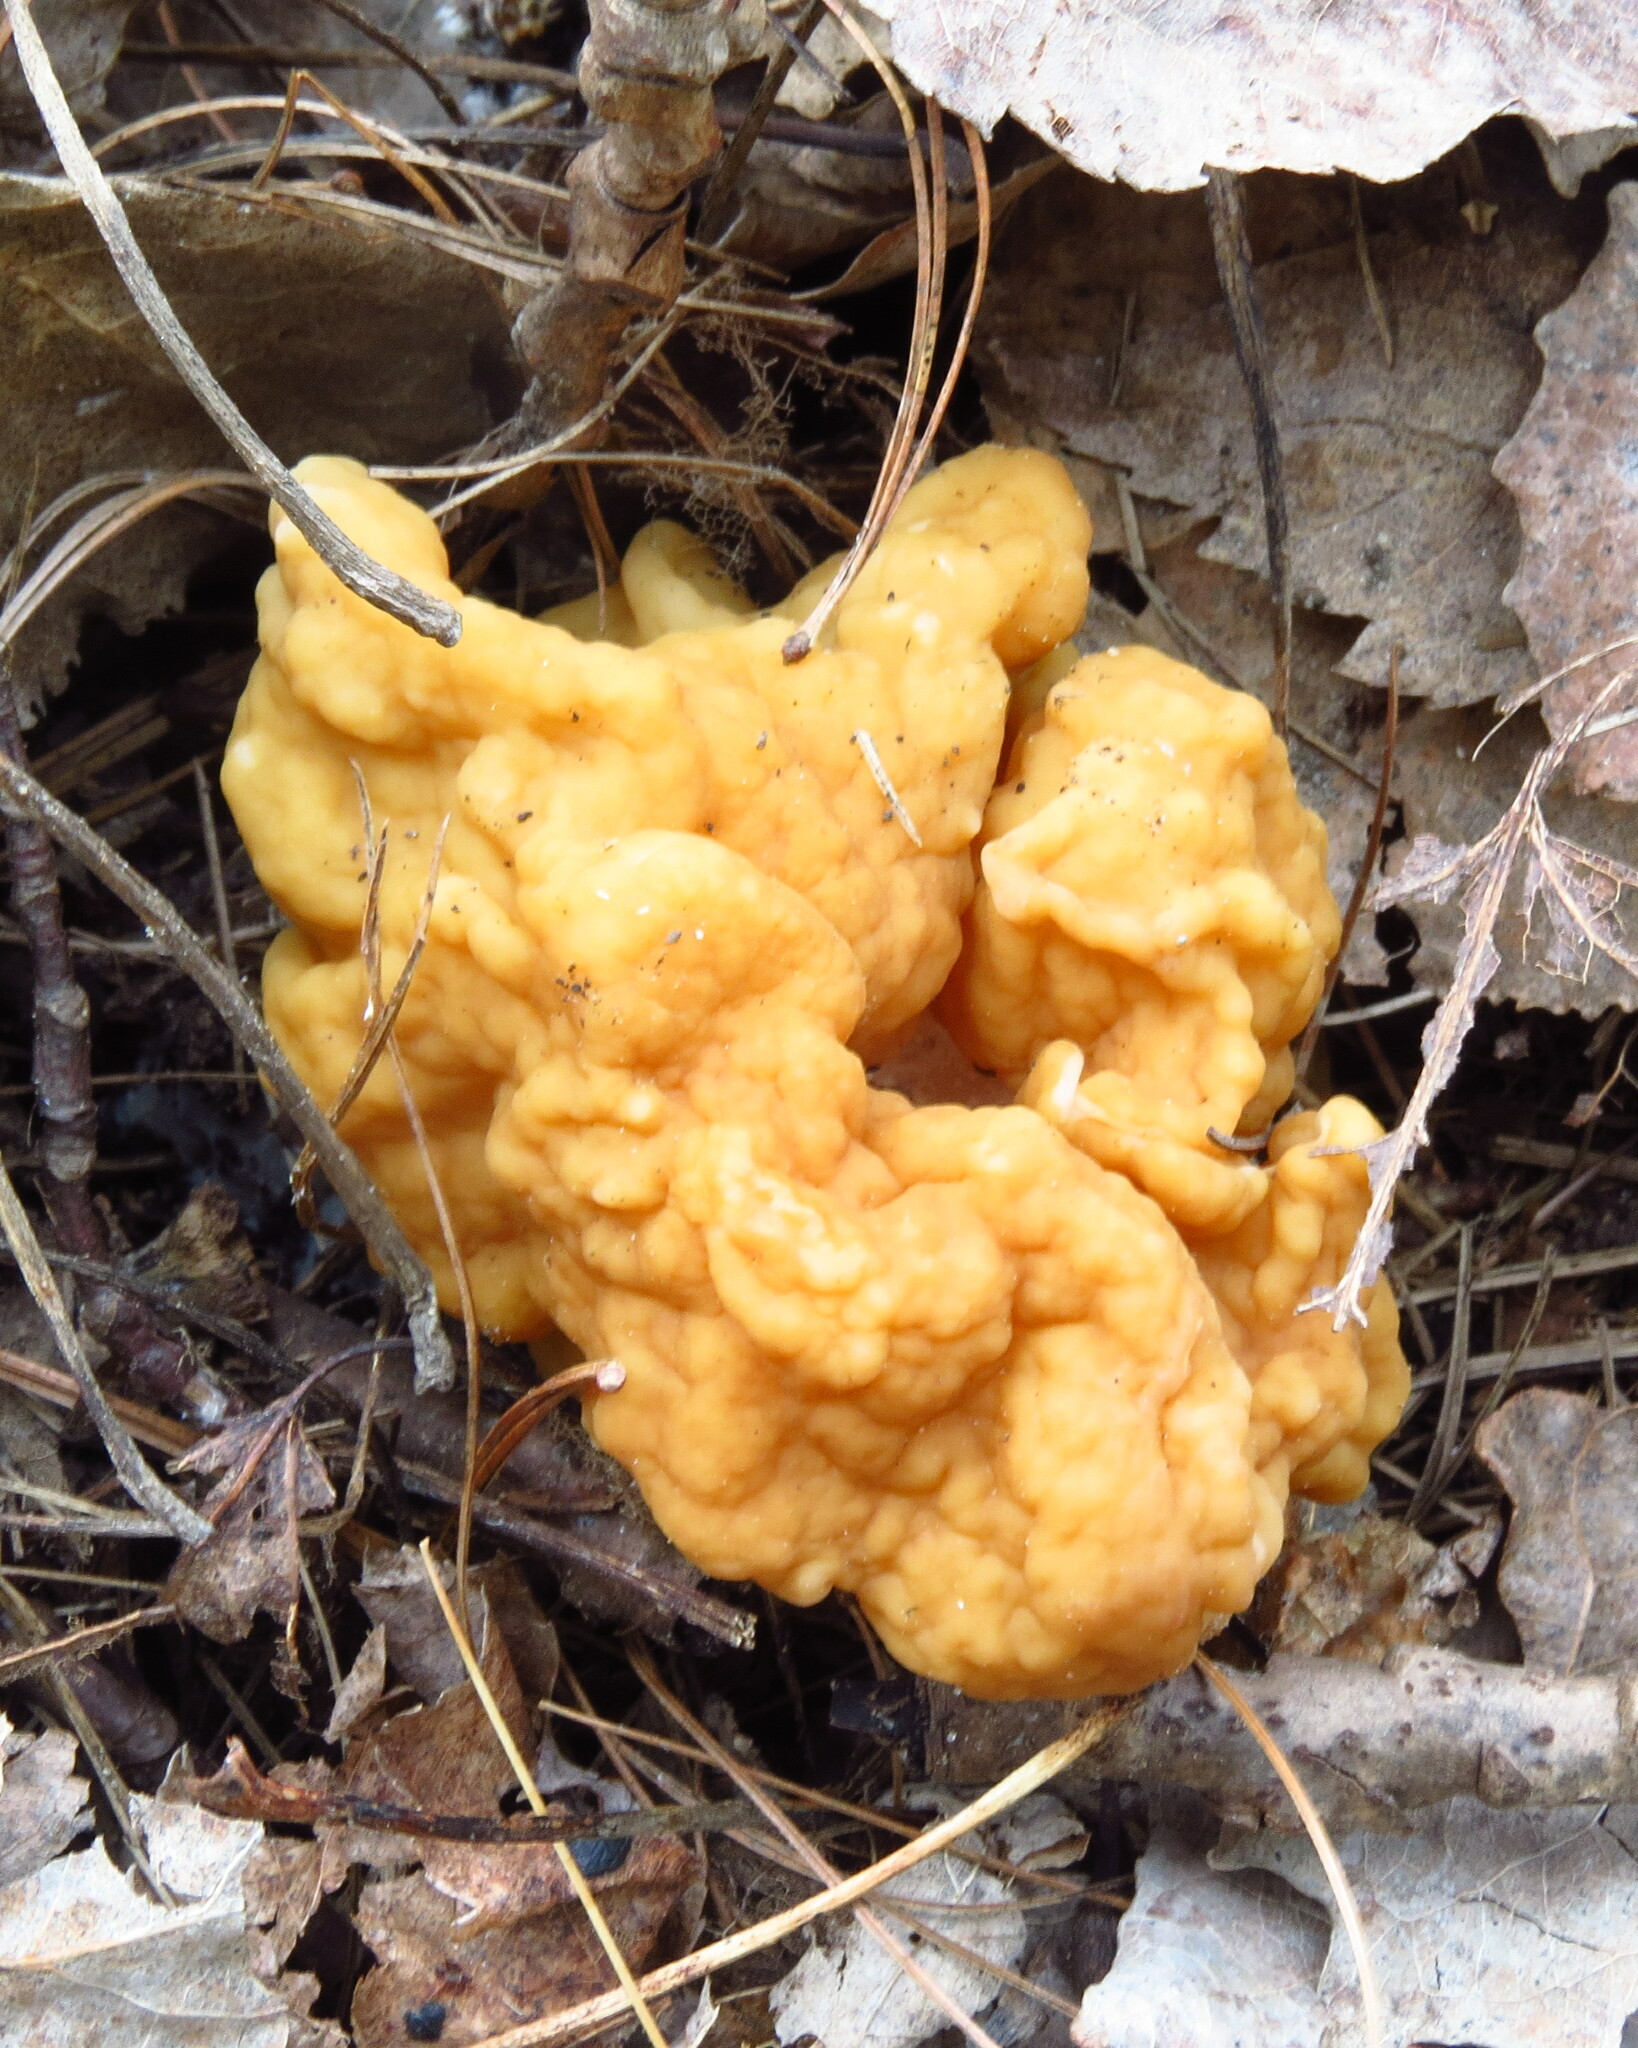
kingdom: Fungi
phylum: Ascomycota
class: Pezizomycetes
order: Pezizales
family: Discinaceae
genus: Gyromitra
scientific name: Gyromitra korfii
